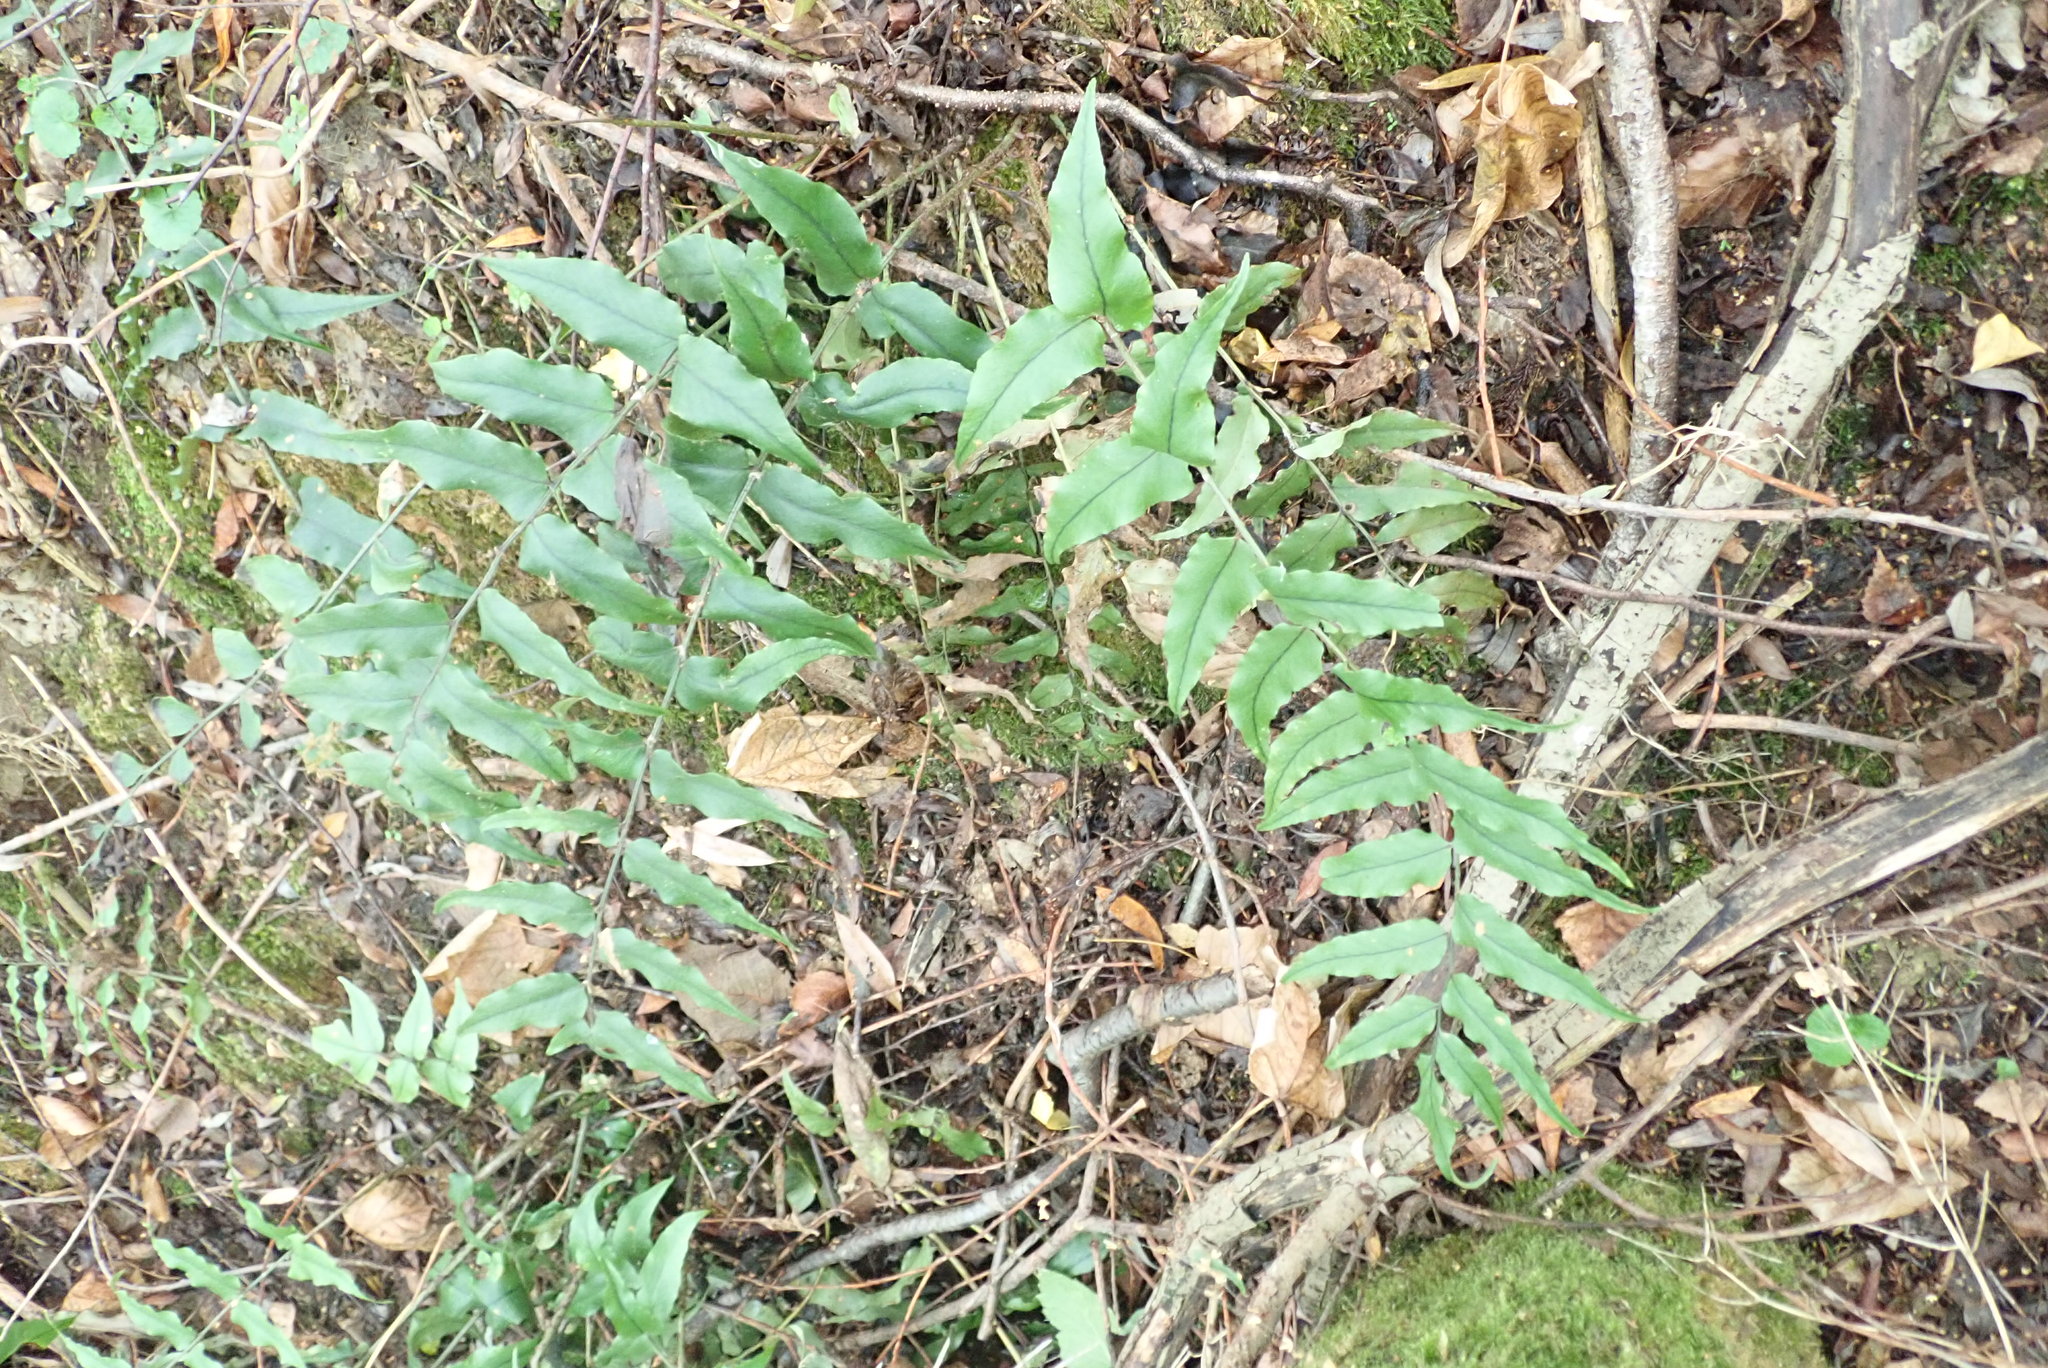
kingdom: Plantae
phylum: Tracheophyta
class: Polypodiopsida
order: Polypodiales
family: Dryopteridaceae
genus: Cyrtomium
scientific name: Cyrtomium fortunei
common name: Asian netvein hollyfern
